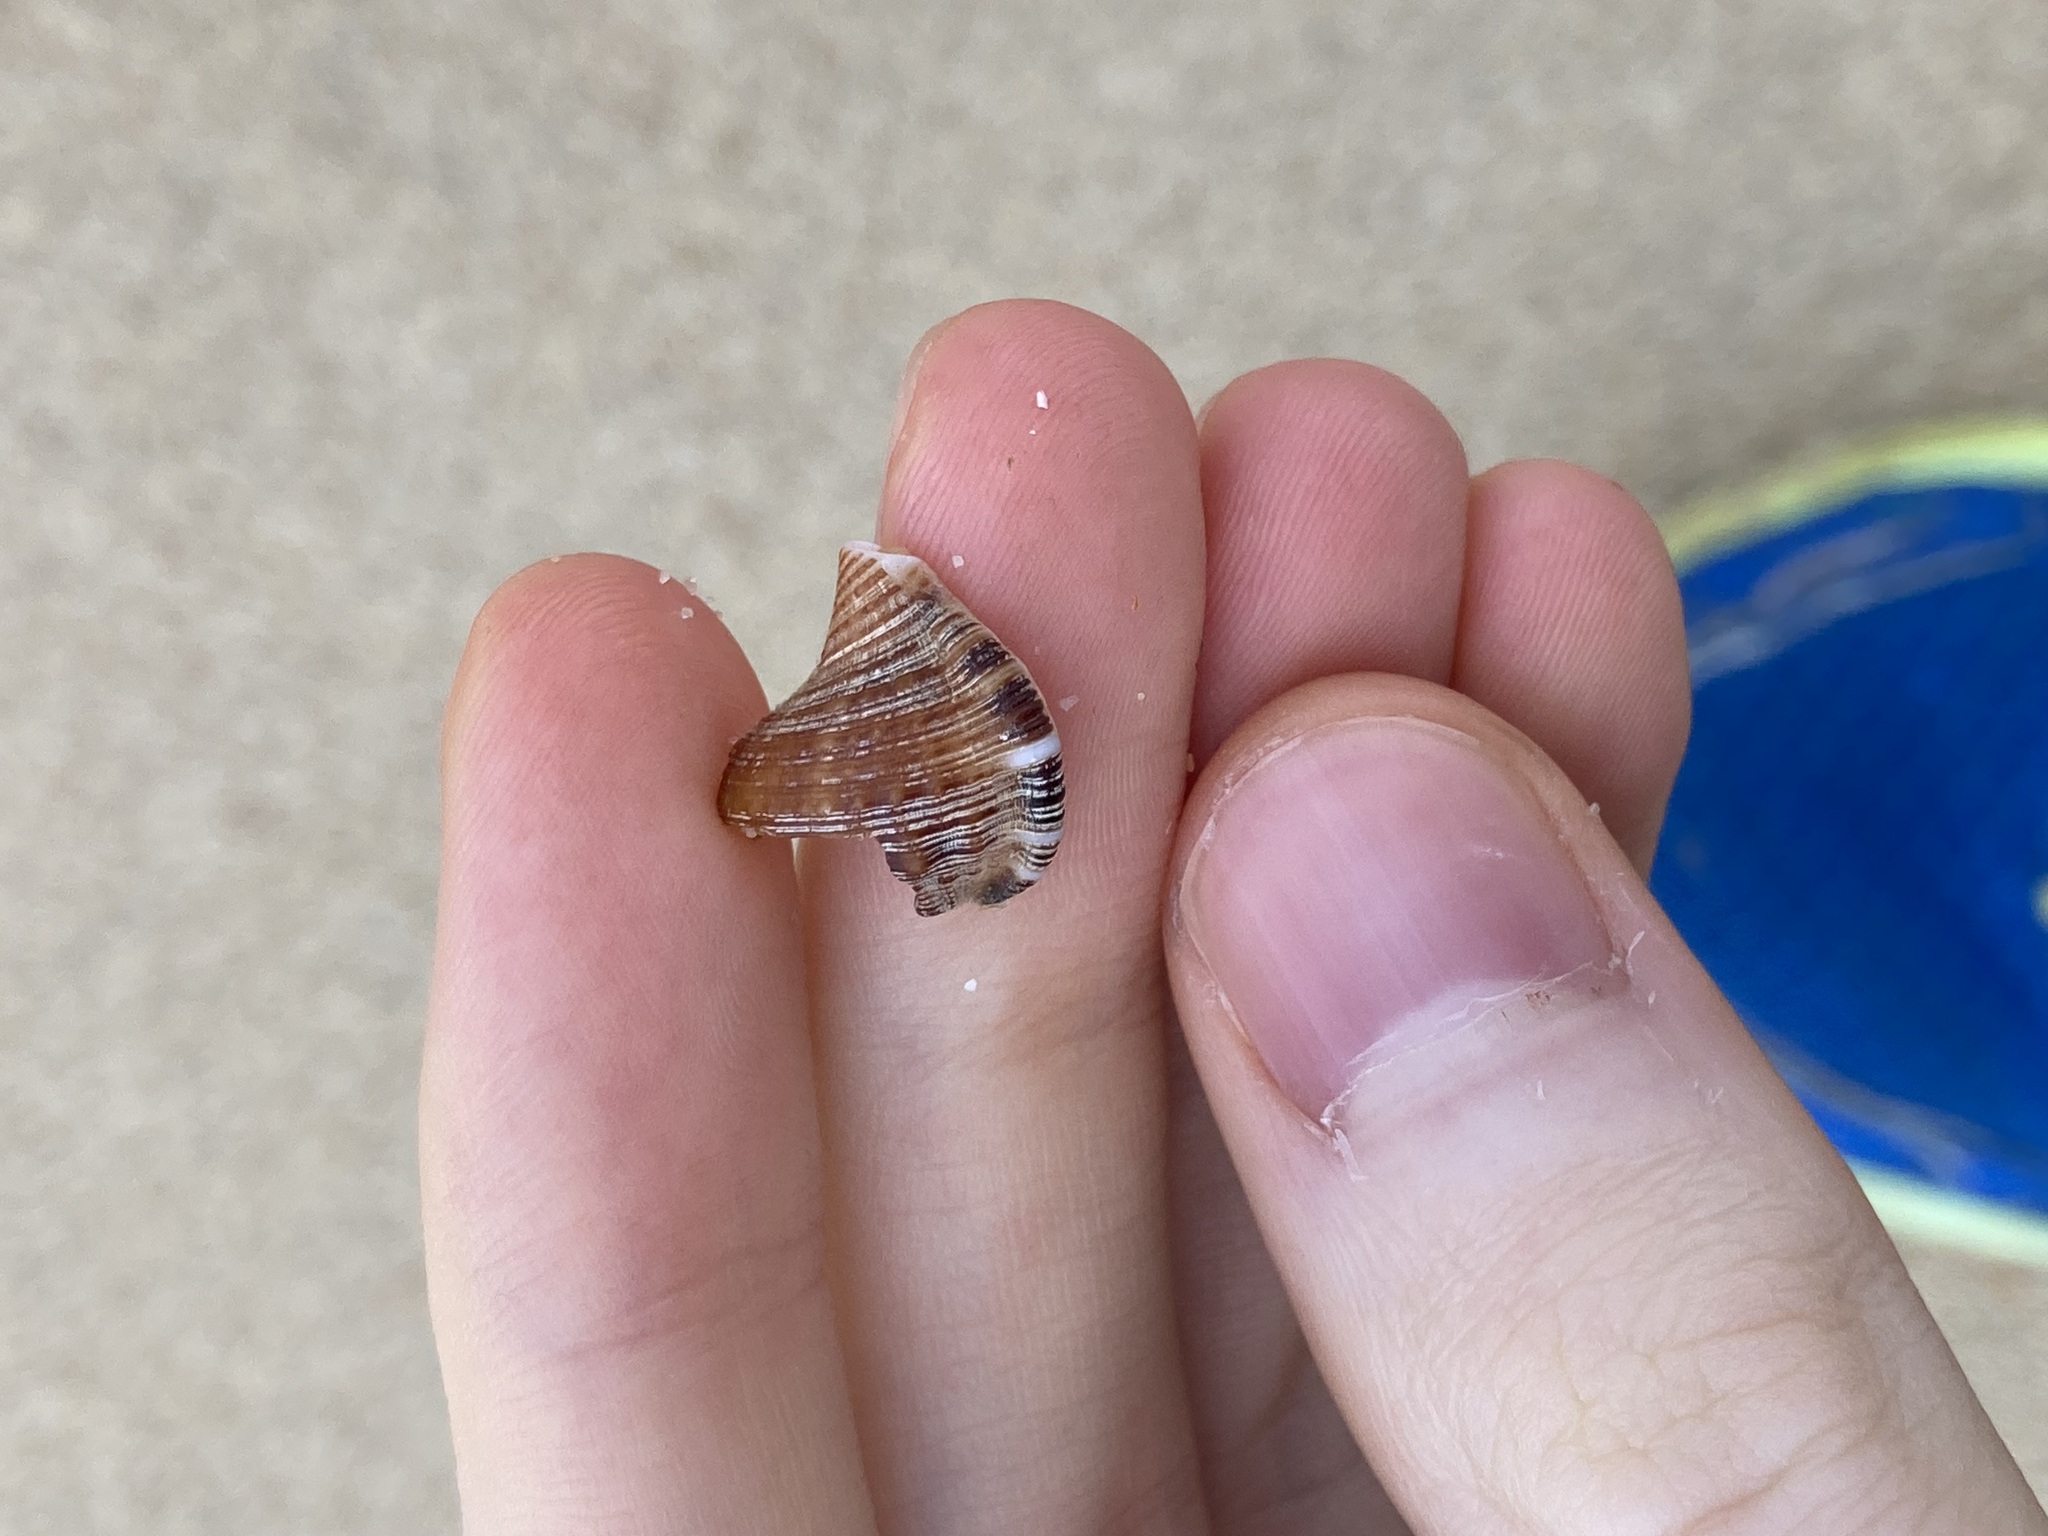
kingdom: Animalia
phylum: Mollusca
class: Gastropoda
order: Littorinimorpha
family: Ranellidae
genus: Ranella
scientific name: Ranella australasia
